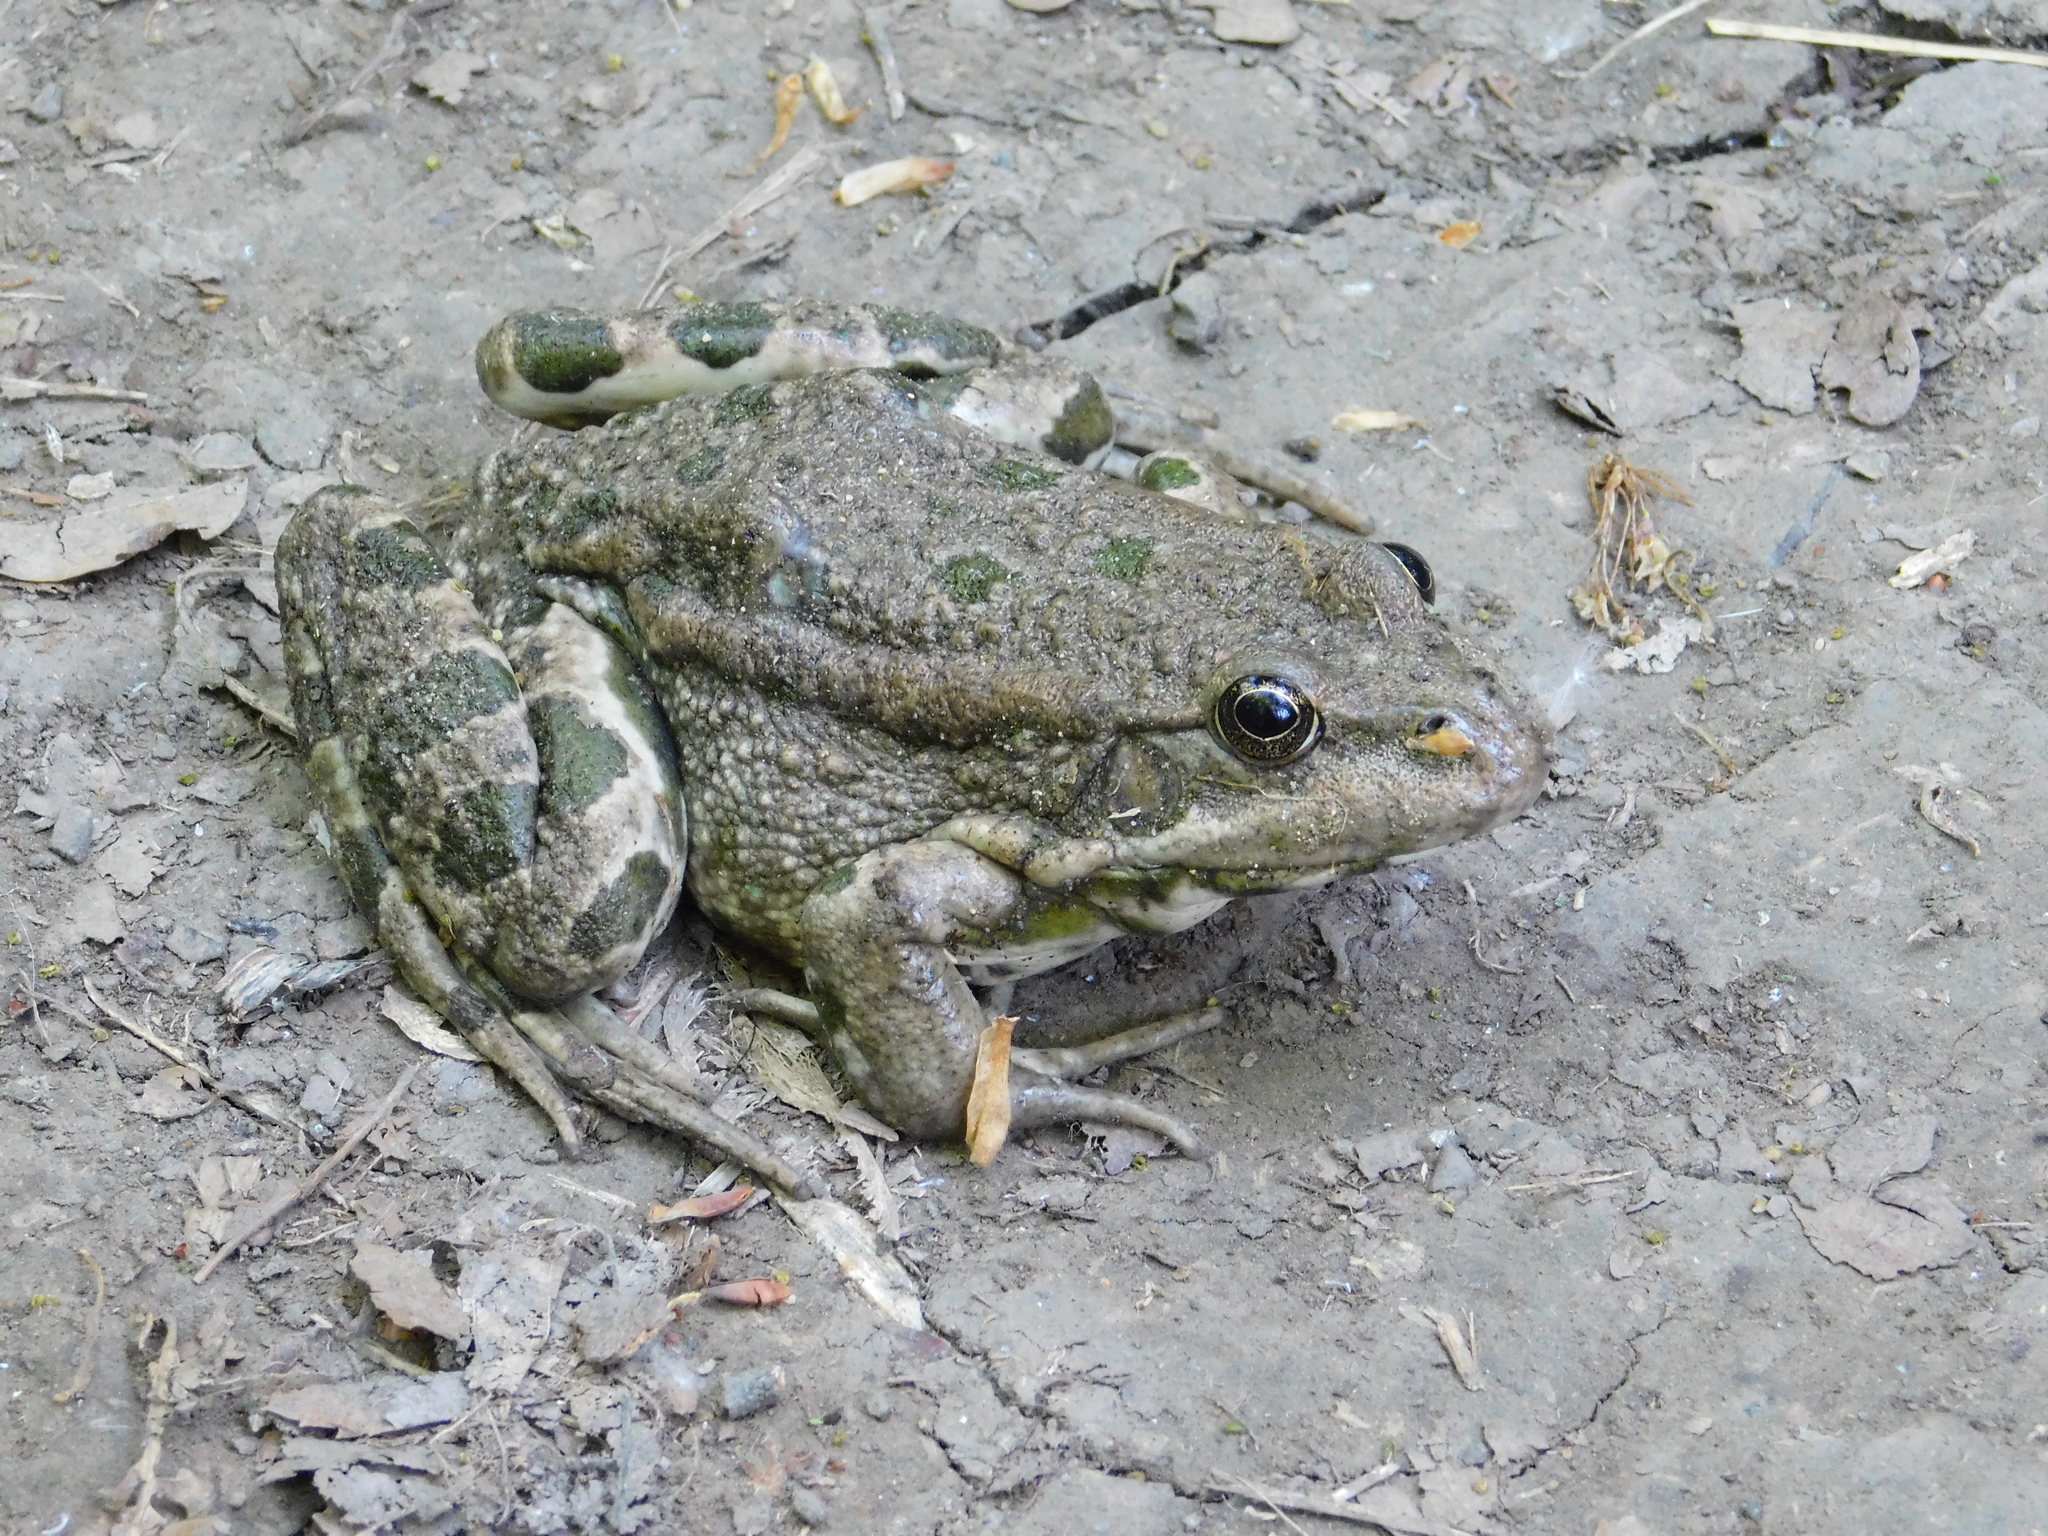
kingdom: Animalia
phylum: Chordata
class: Amphibia
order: Anura
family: Ranidae
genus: Pelophylax
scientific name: Pelophylax ridibundus
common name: Marsh frog
